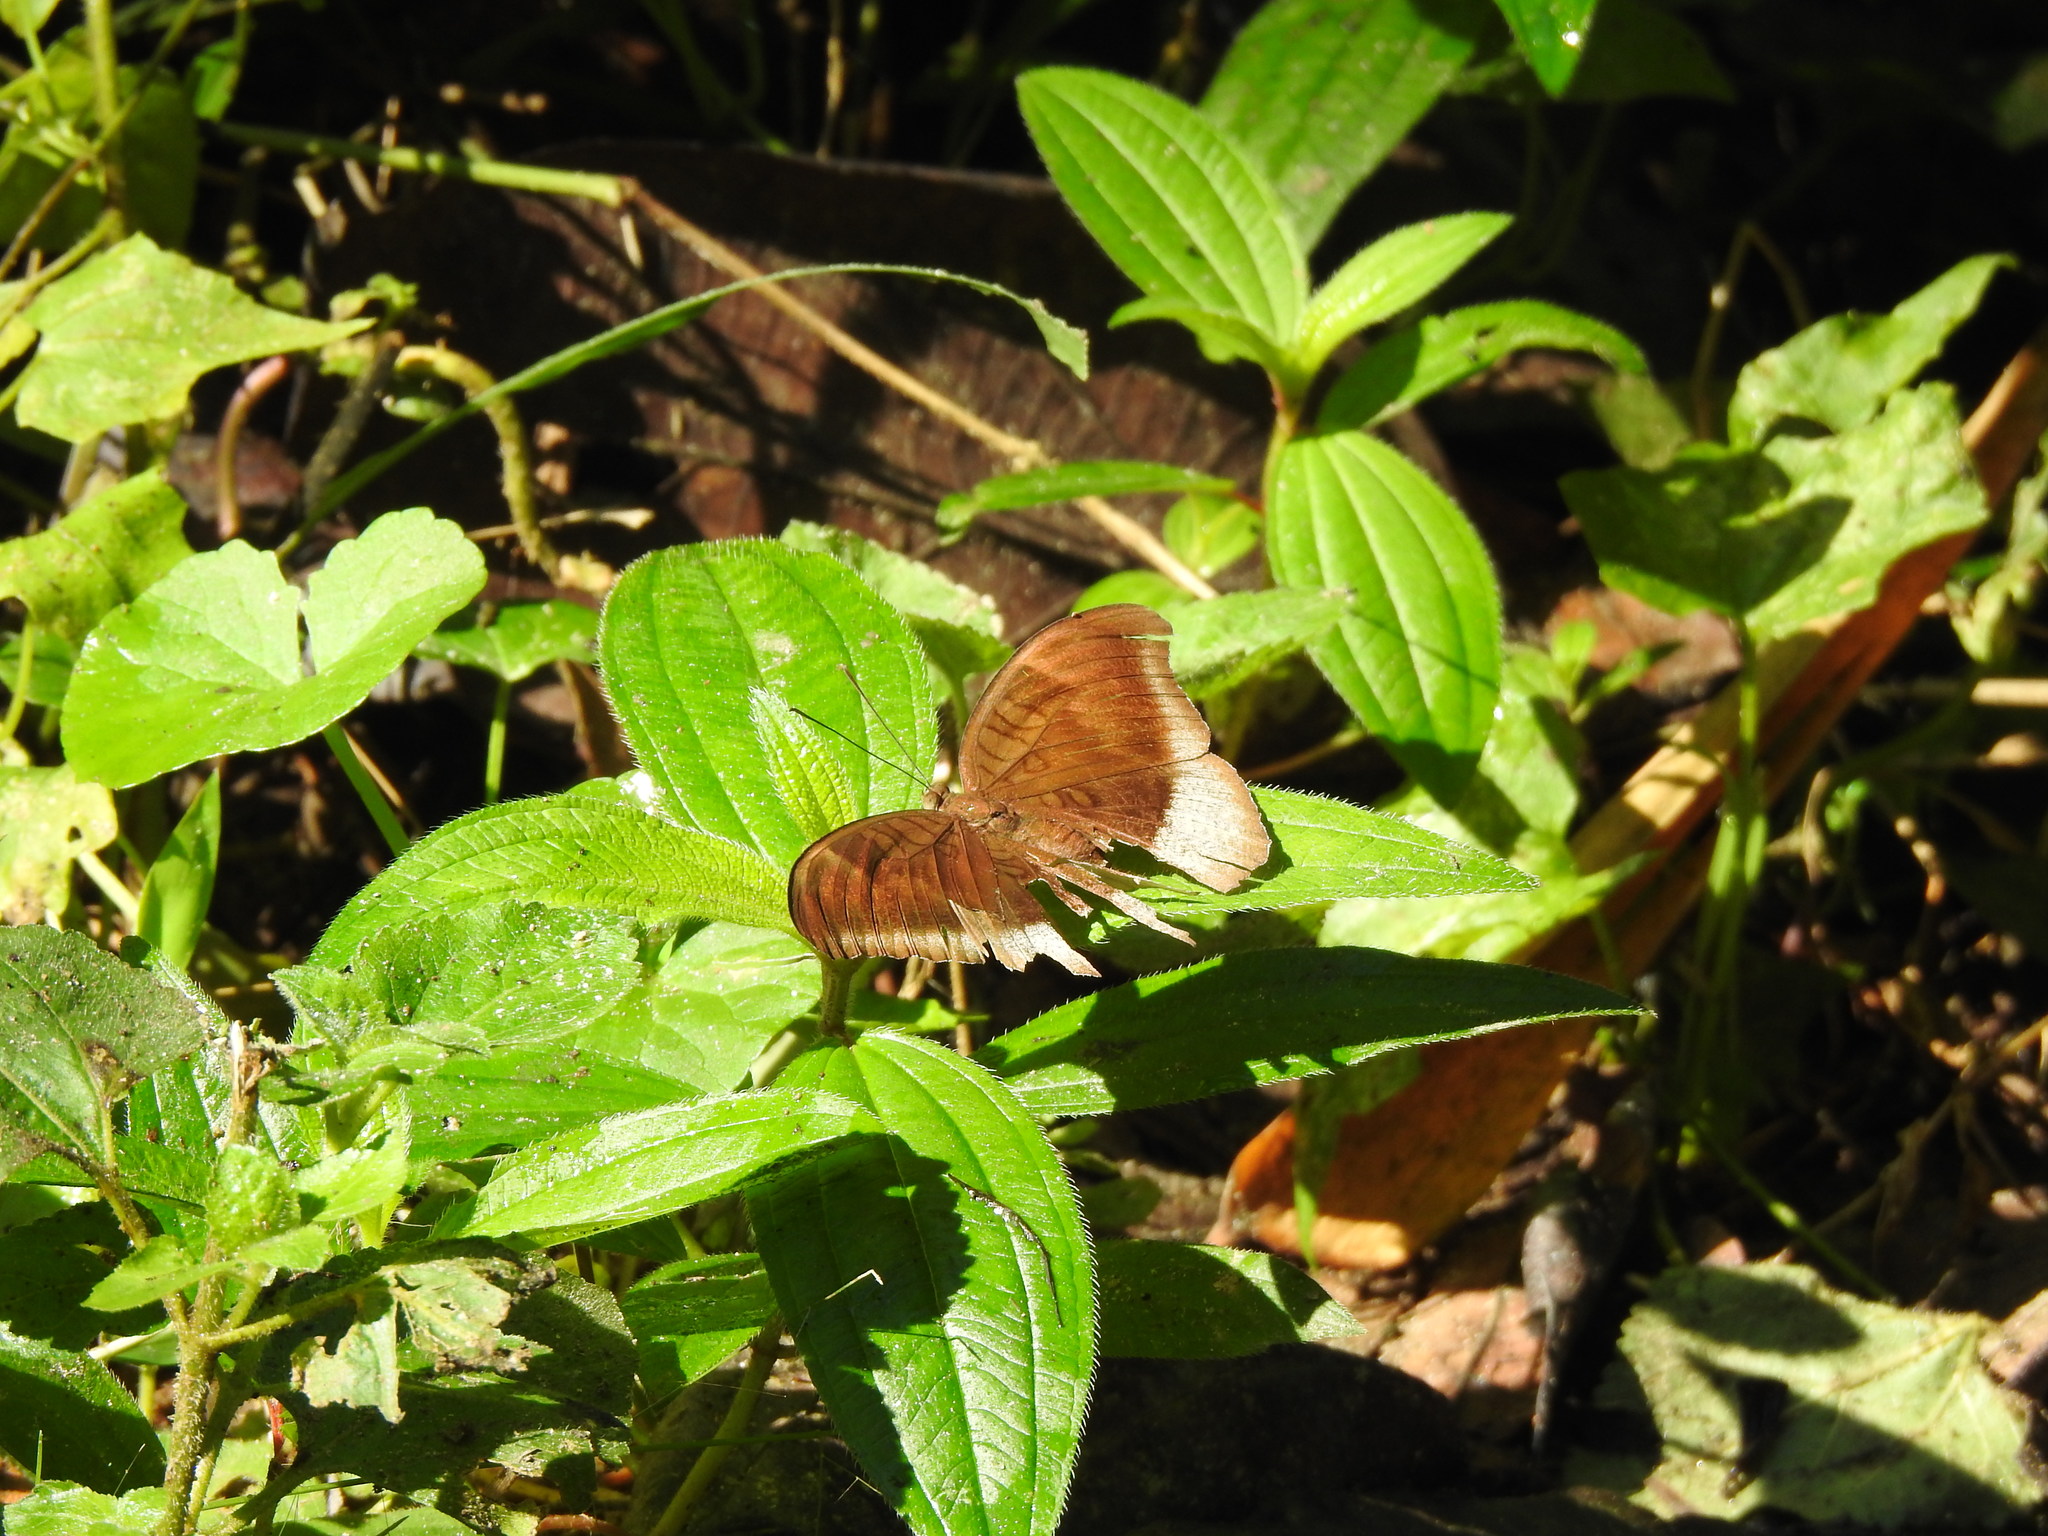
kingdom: Animalia
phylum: Arthropoda
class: Insecta
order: Lepidoptera
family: Nymphalidae
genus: Tanaecia
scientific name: Tanaecia lepidea
